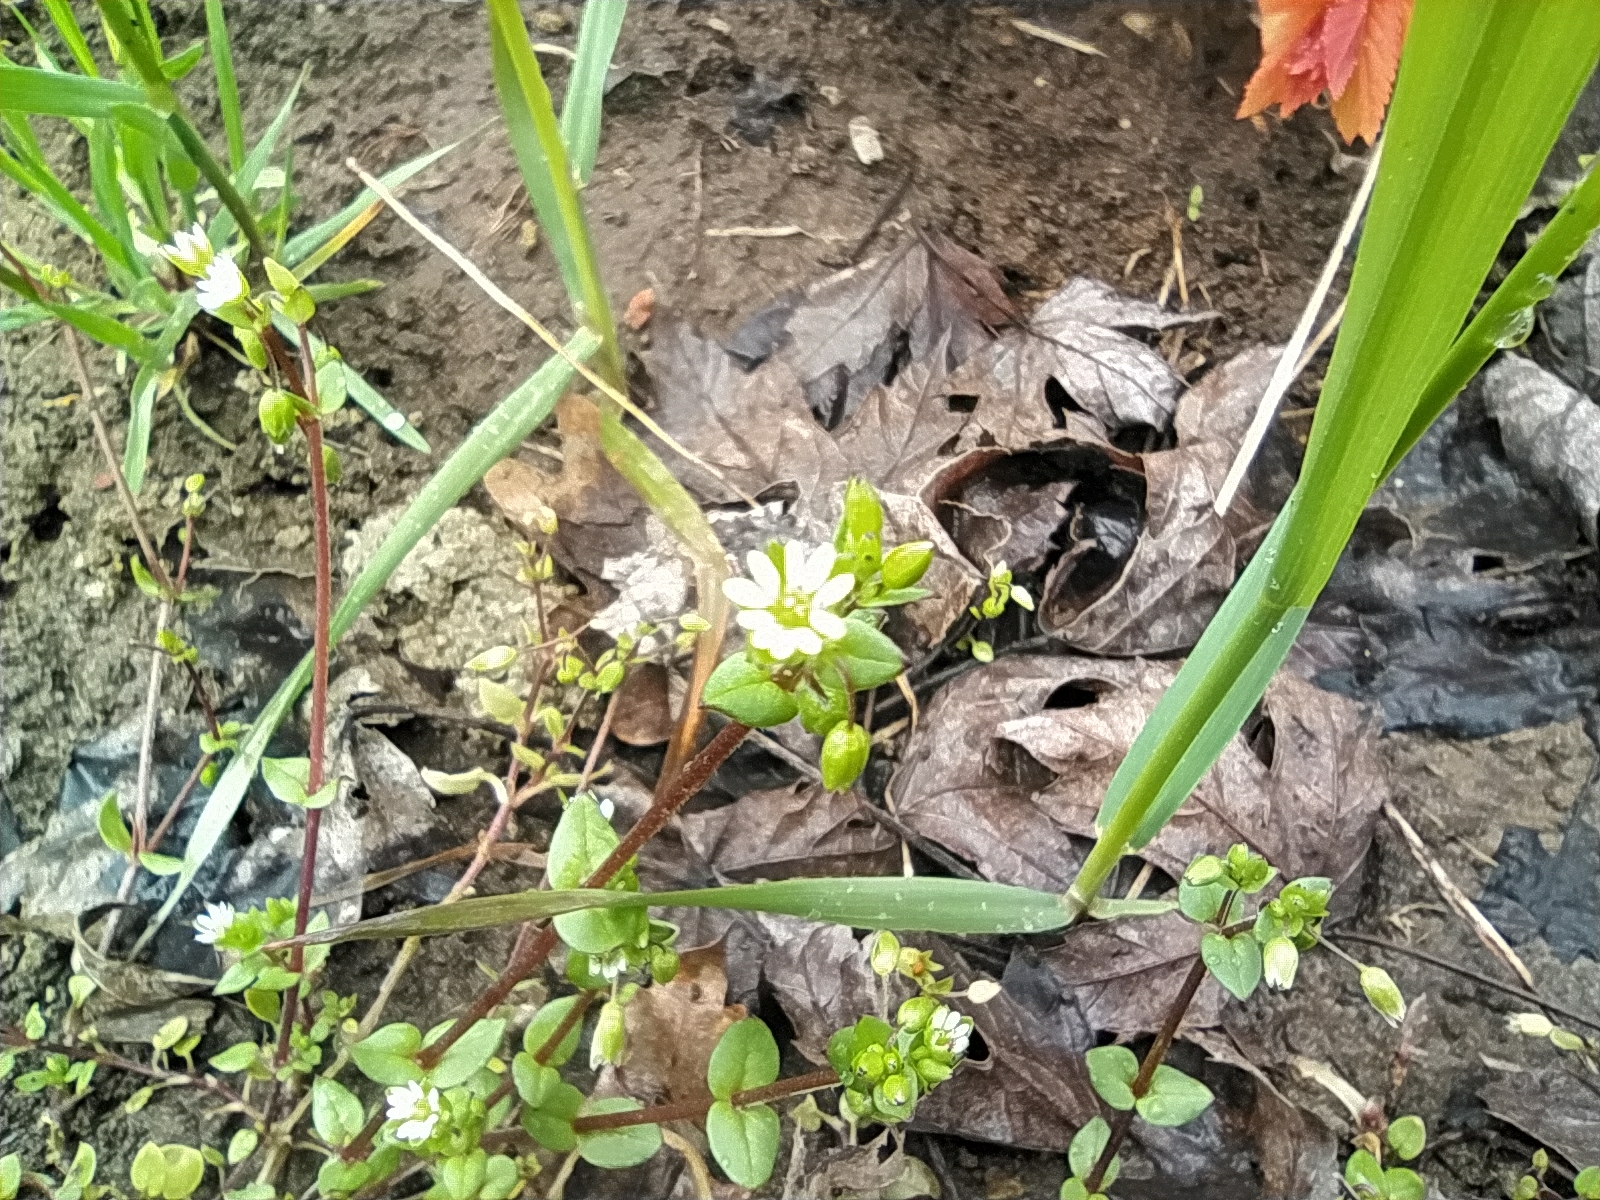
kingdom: Plantae
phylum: Tracheophyta
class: Magnoliopsida
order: Caryophyllales
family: Caryophyllaceae
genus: Stellaria
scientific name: Stellaria media
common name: Common chickweed
